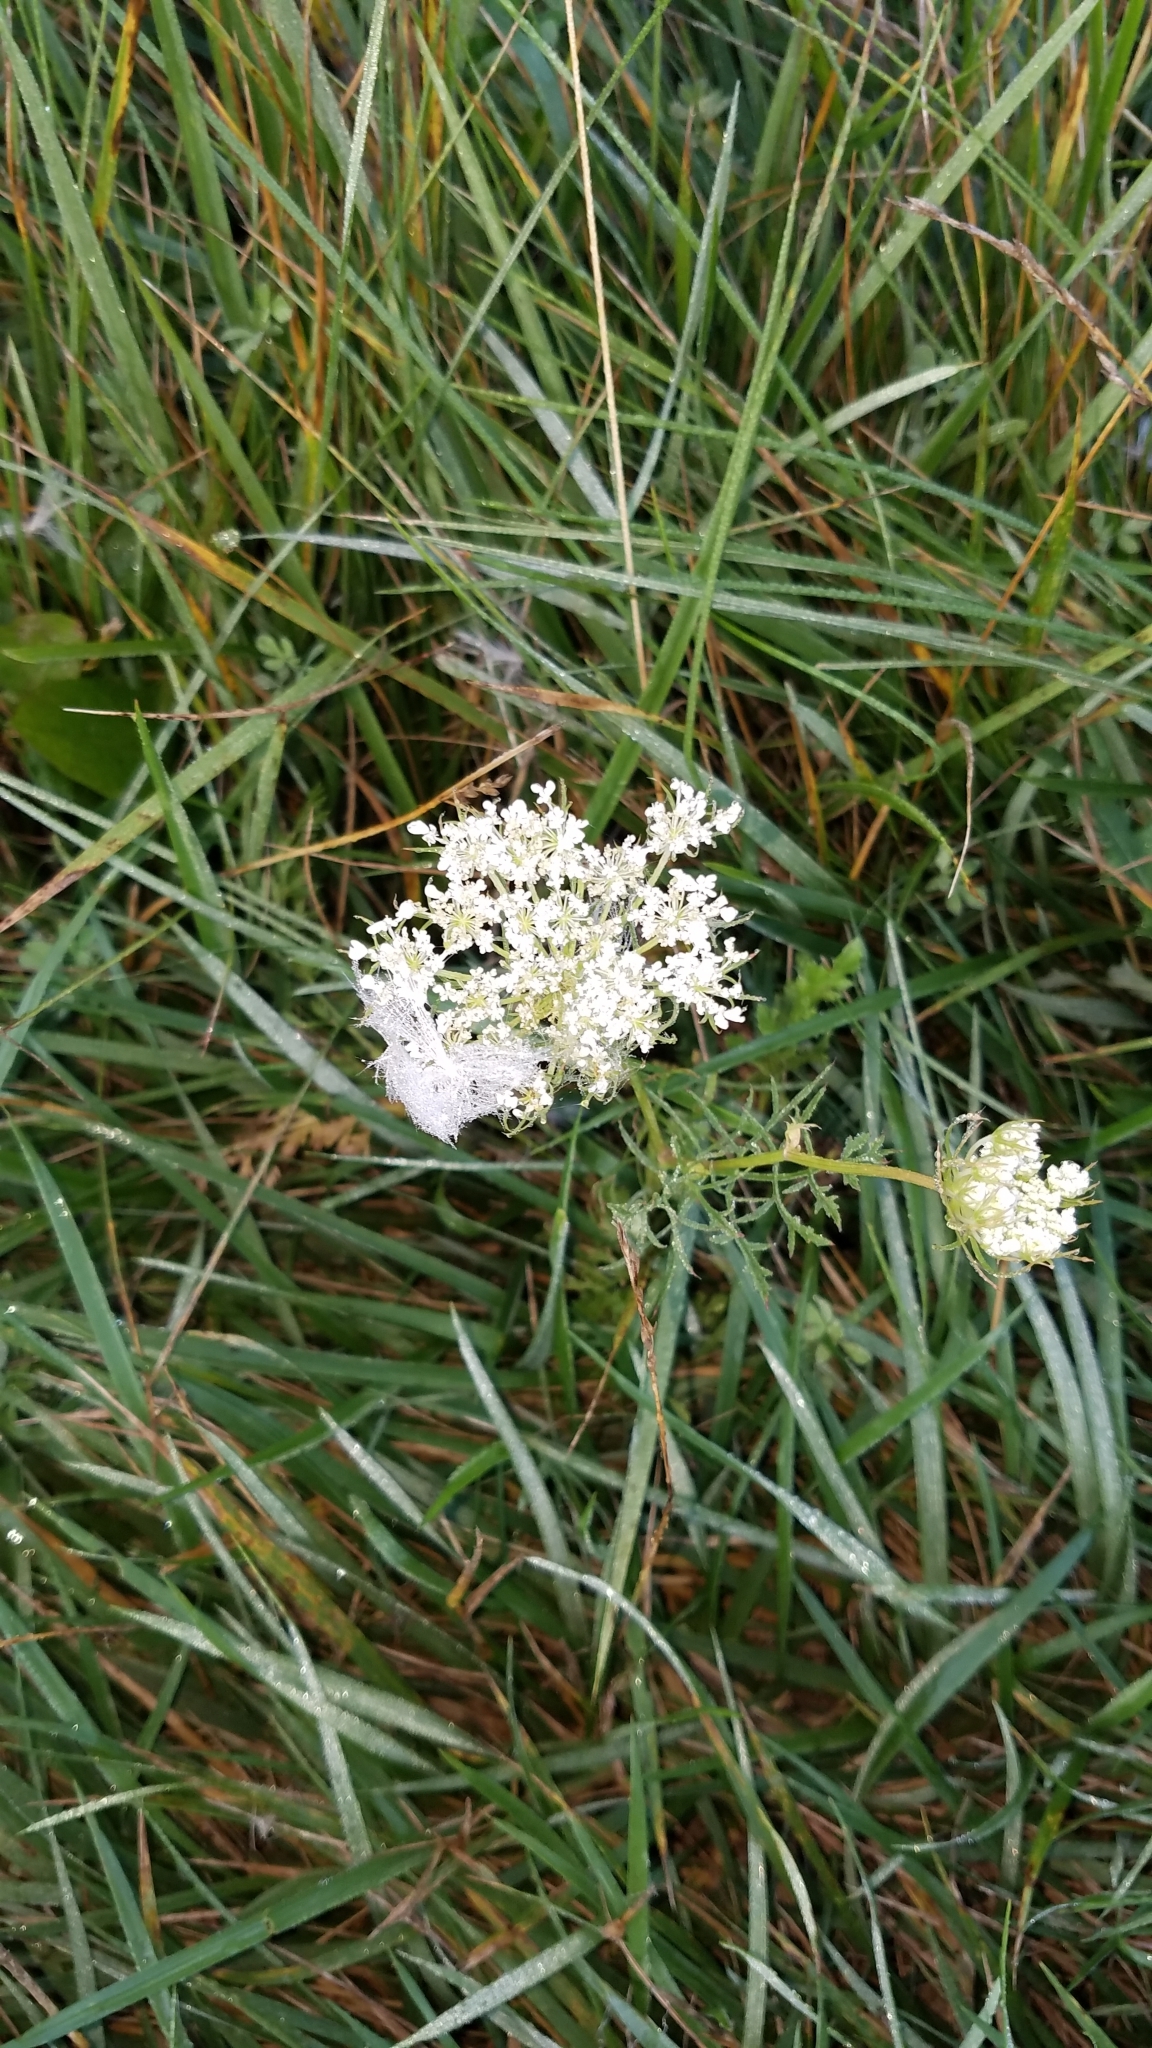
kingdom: Plantae
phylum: Tracheophyta
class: Magnoliopsida
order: Apiales
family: Apiaceae
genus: Daucus
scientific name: Daucus carota
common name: Wild carrot
